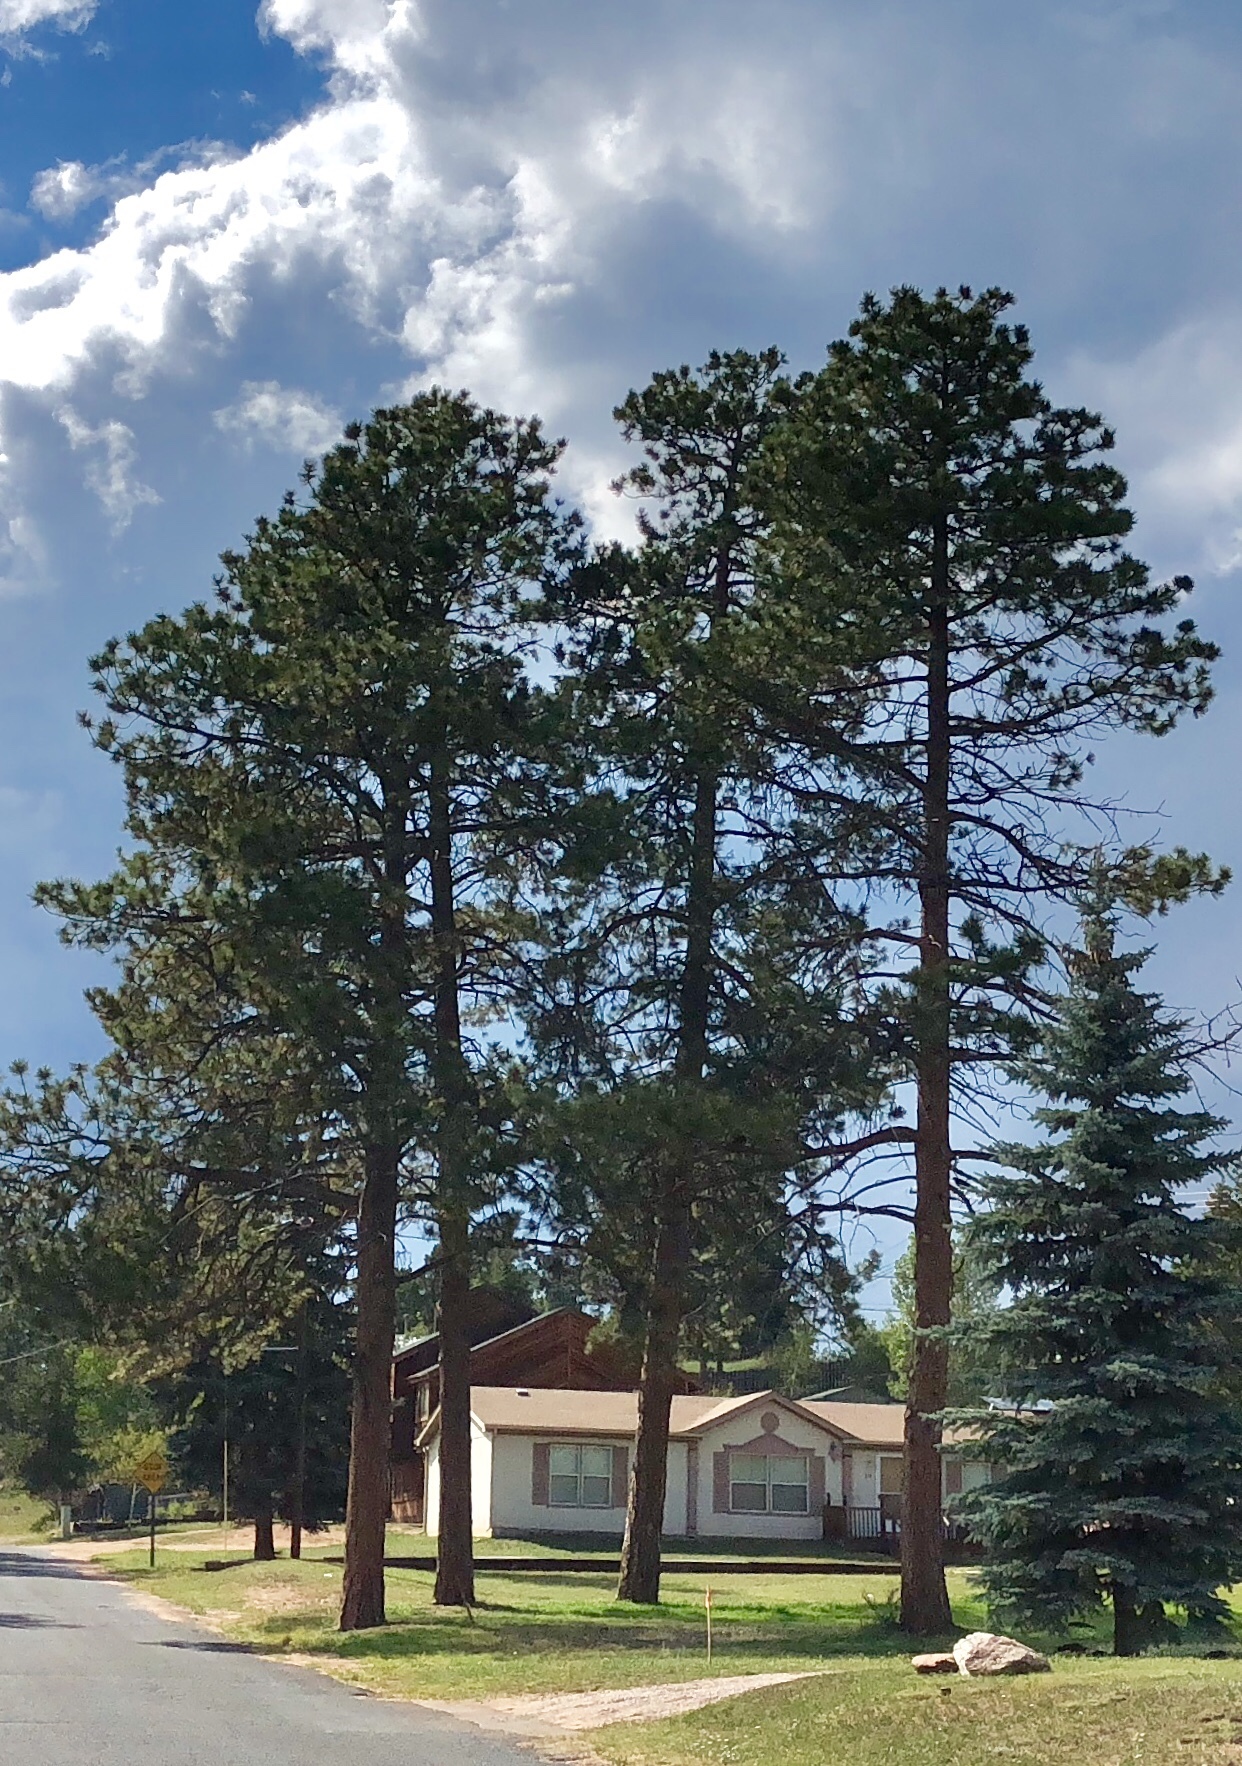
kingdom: Plantae
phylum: Tracheophyta
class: Pinopsida
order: Pinales
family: Pinaceae
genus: Pinus
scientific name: Pinus ponderosa
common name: Western yellow-pine
